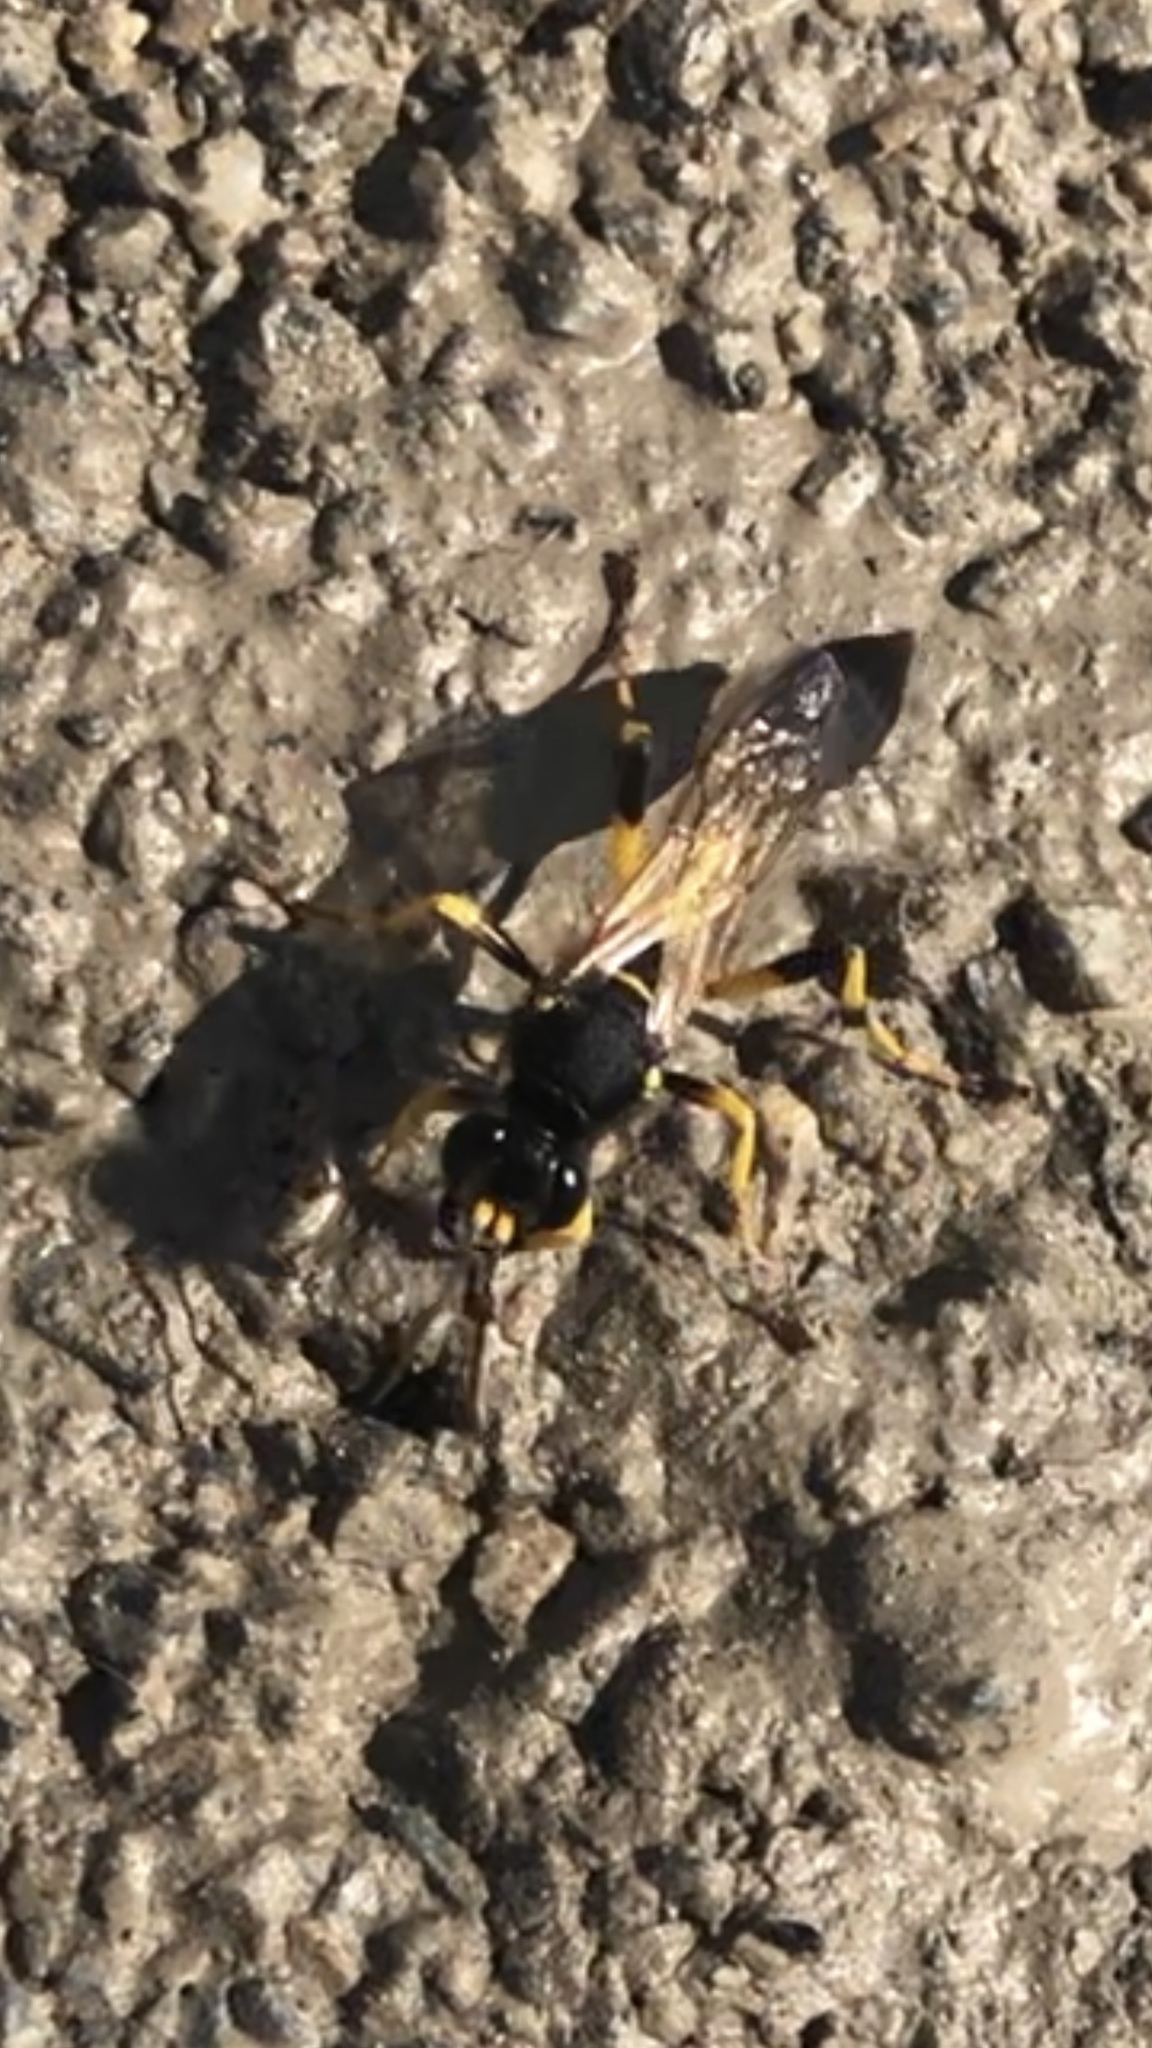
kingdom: Animalia
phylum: Arthropoda
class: Insecta
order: Hymenoptera
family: Sphecidae
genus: Sceliphron
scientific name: Sceliphron destillatorium
